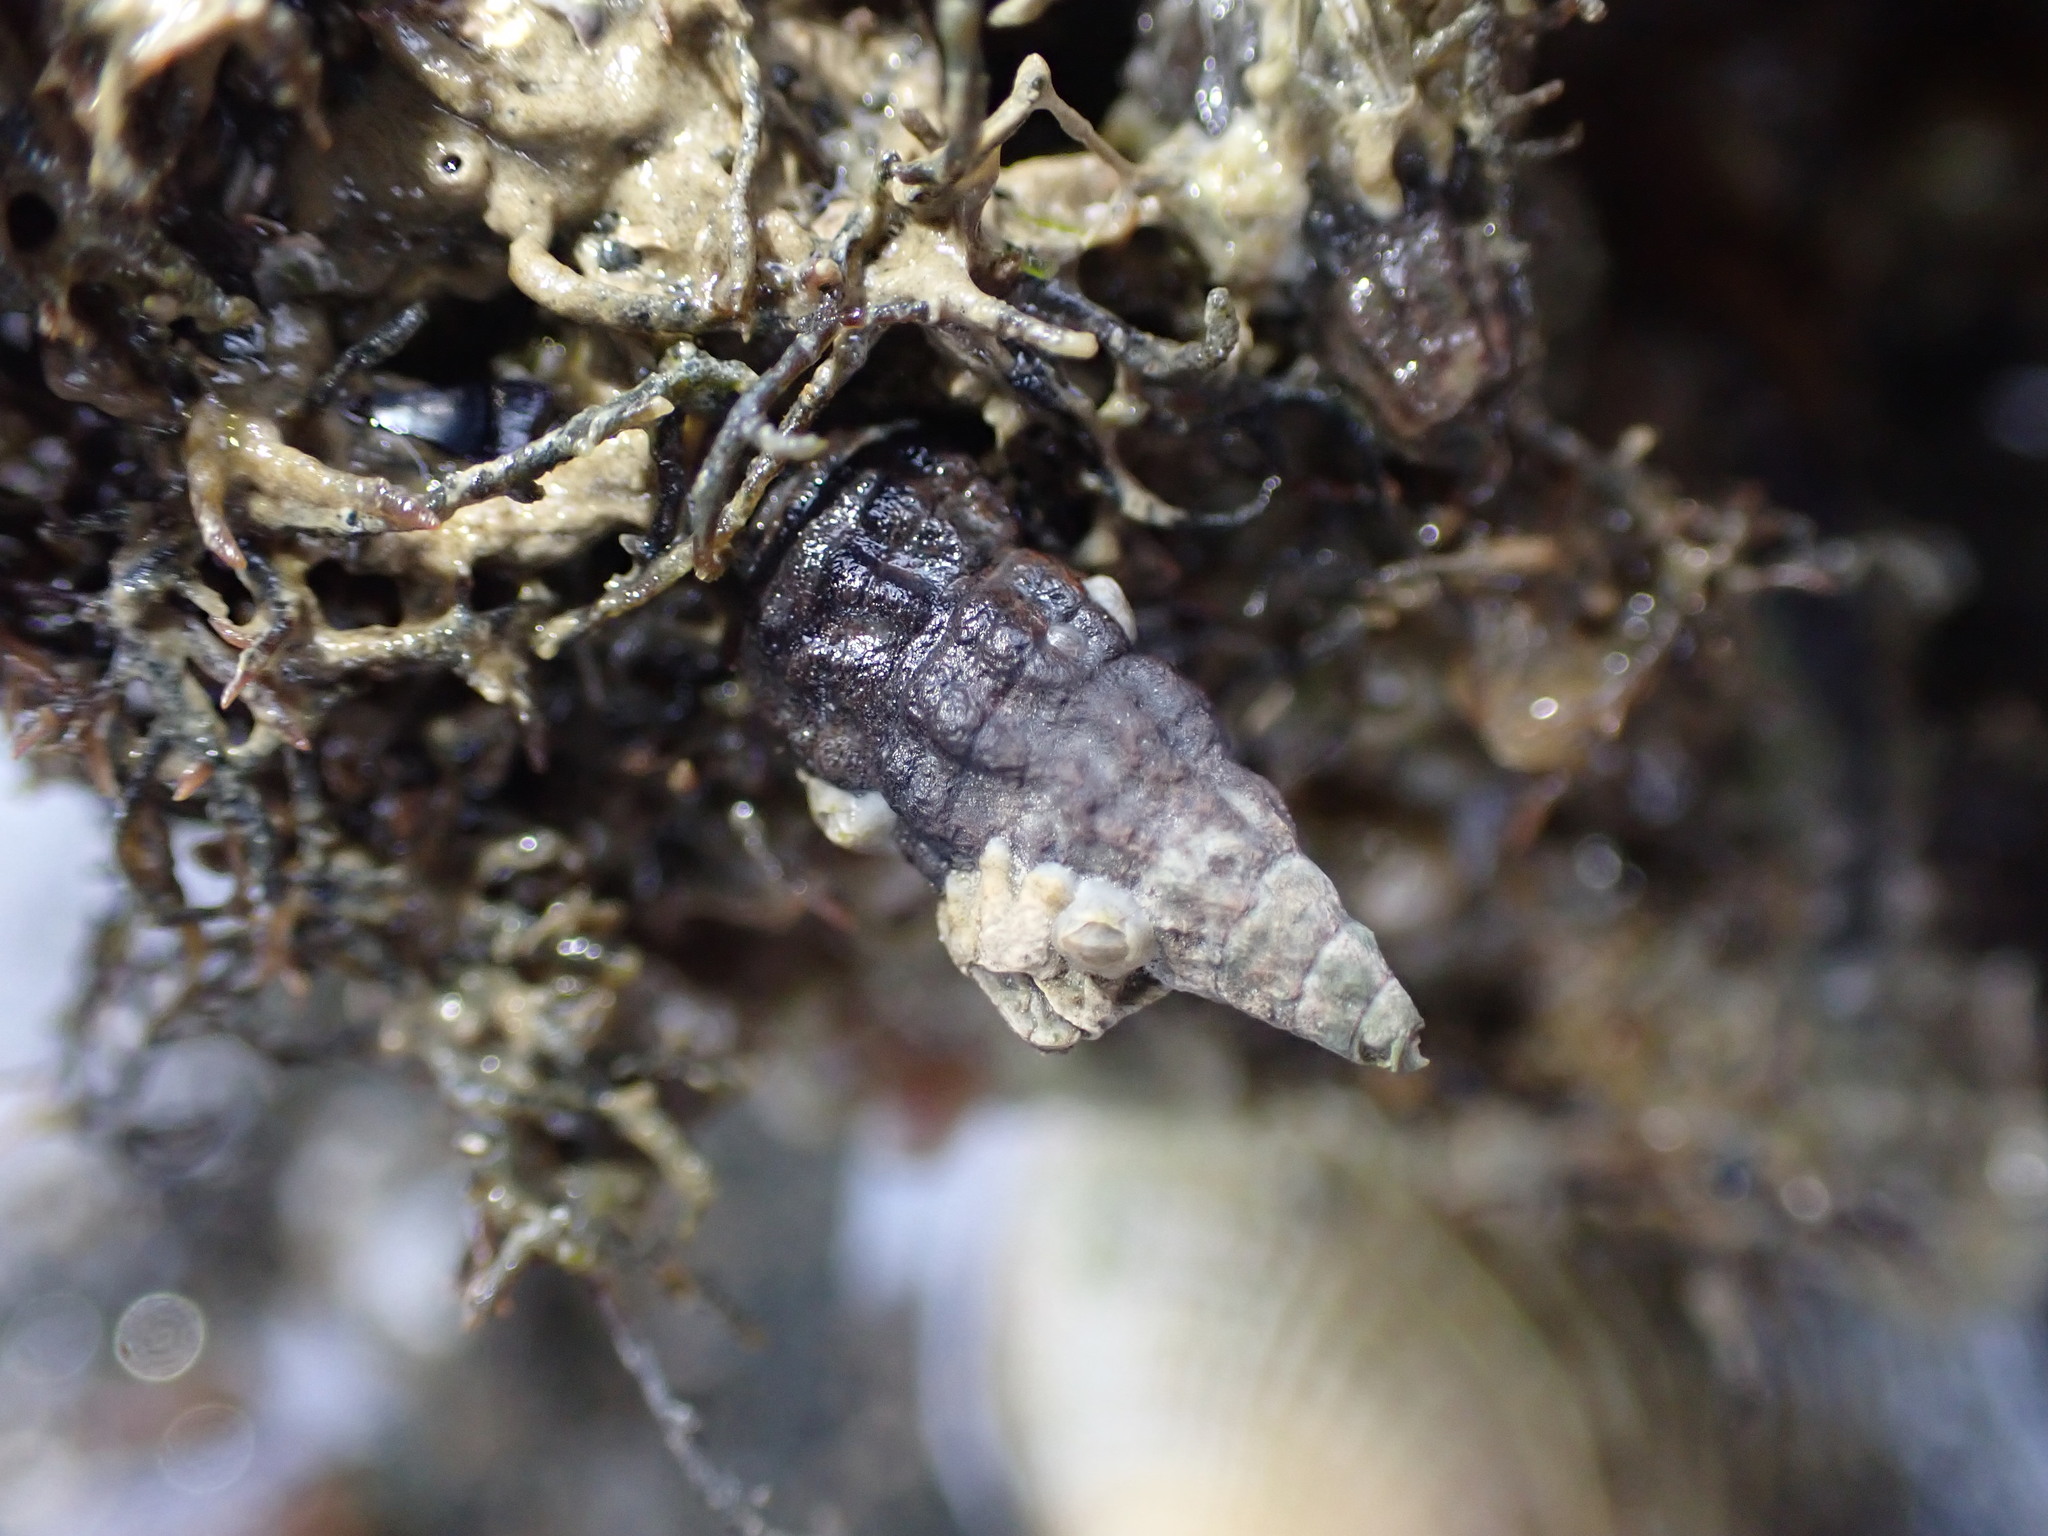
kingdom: Animalia
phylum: Mollusca
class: Gastropoda
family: Batillariidae
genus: Zeacumantus
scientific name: Zeacumantus subcarinatus
